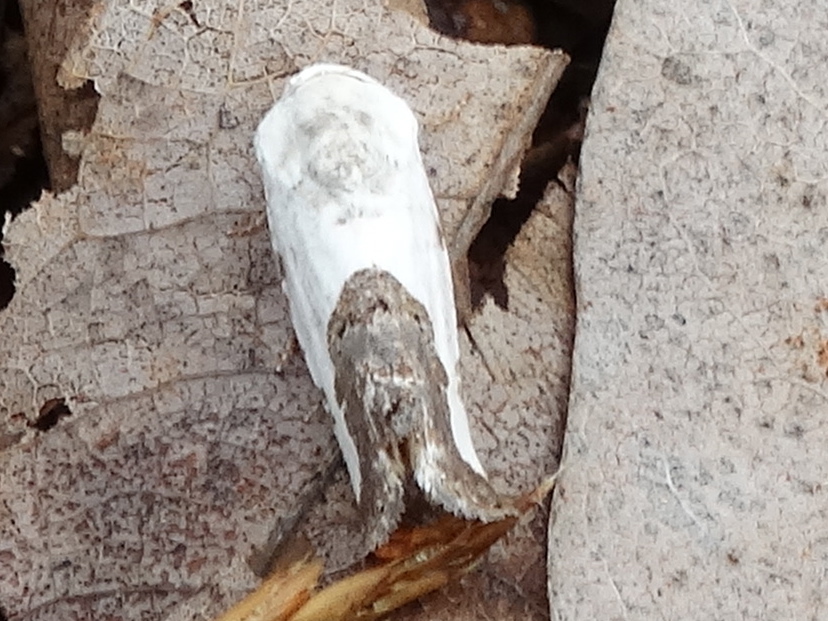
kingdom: Animalia
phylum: Arthropoda
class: Insecta
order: Lepidoptera
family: Noctuidae
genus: Ponometia
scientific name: Ponometia
